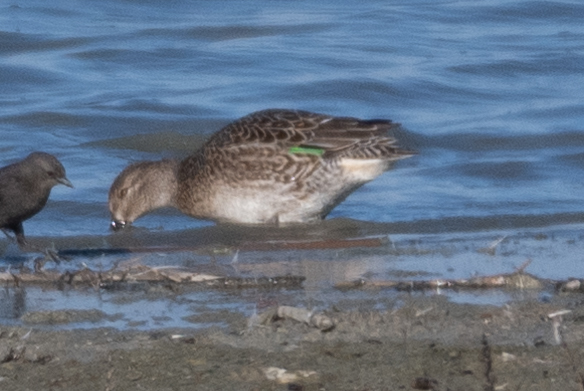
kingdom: Animalia
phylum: Chordata
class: Aves
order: Anseriformes
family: Anatidae
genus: Anas
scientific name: Anas crecca
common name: Eurasian teal
